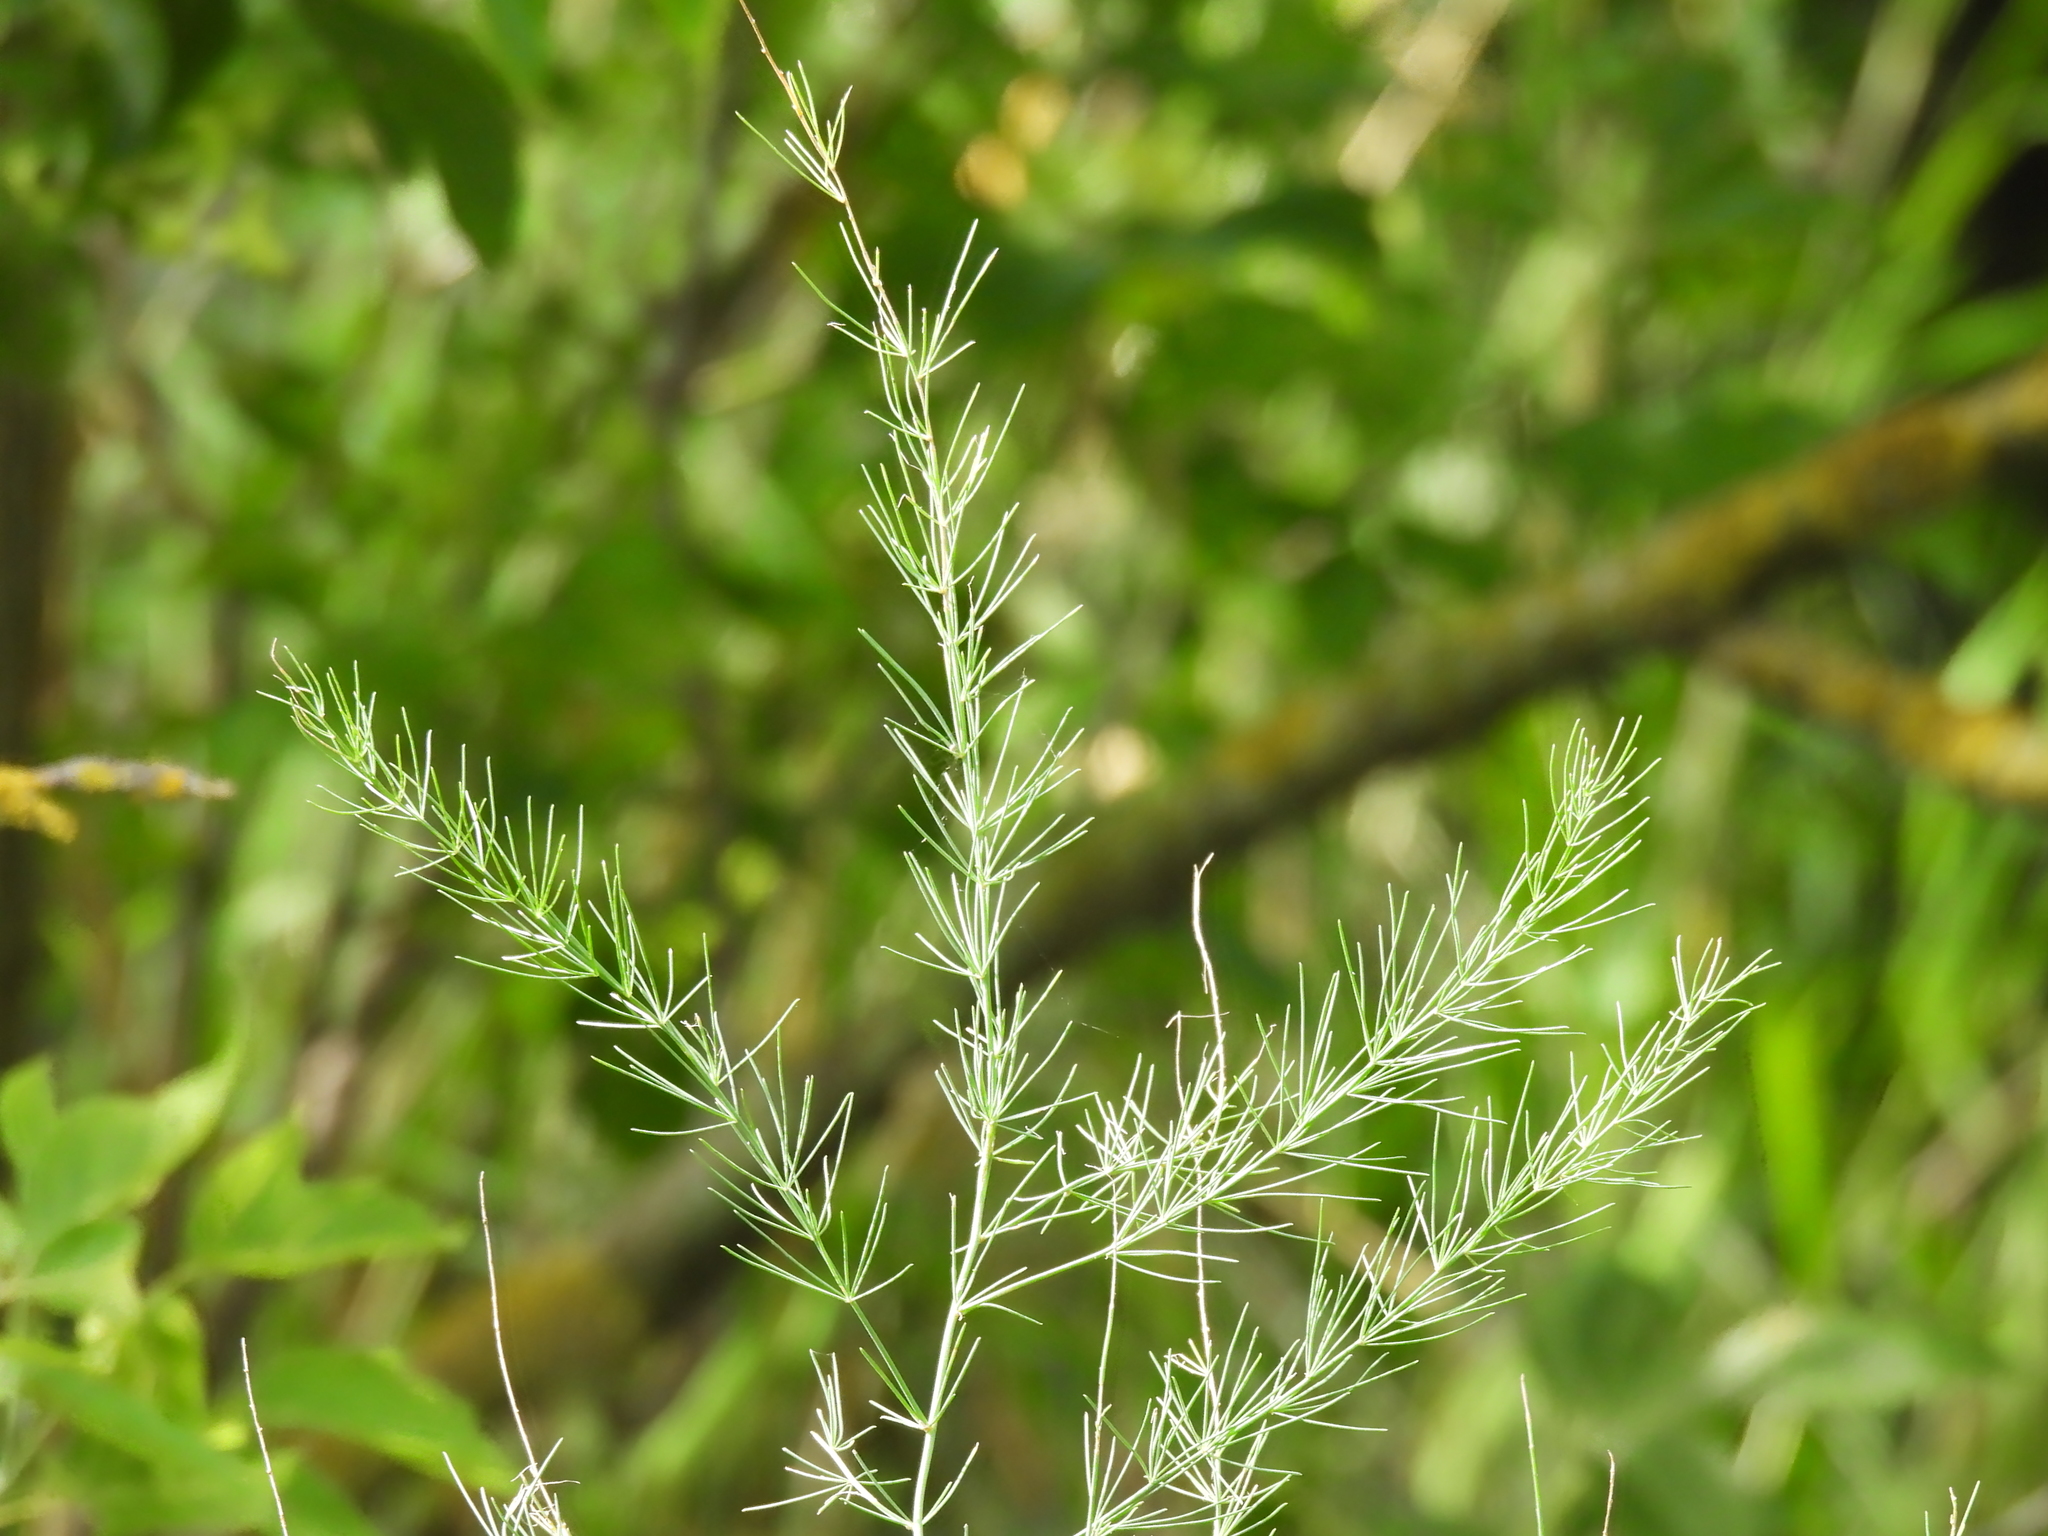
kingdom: Plantae
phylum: Tracheophyta
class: Liliopsida
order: Asparagales
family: Asparagaceae
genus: Asparagus
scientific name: Asparagus officinalis
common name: Garden asparagus
